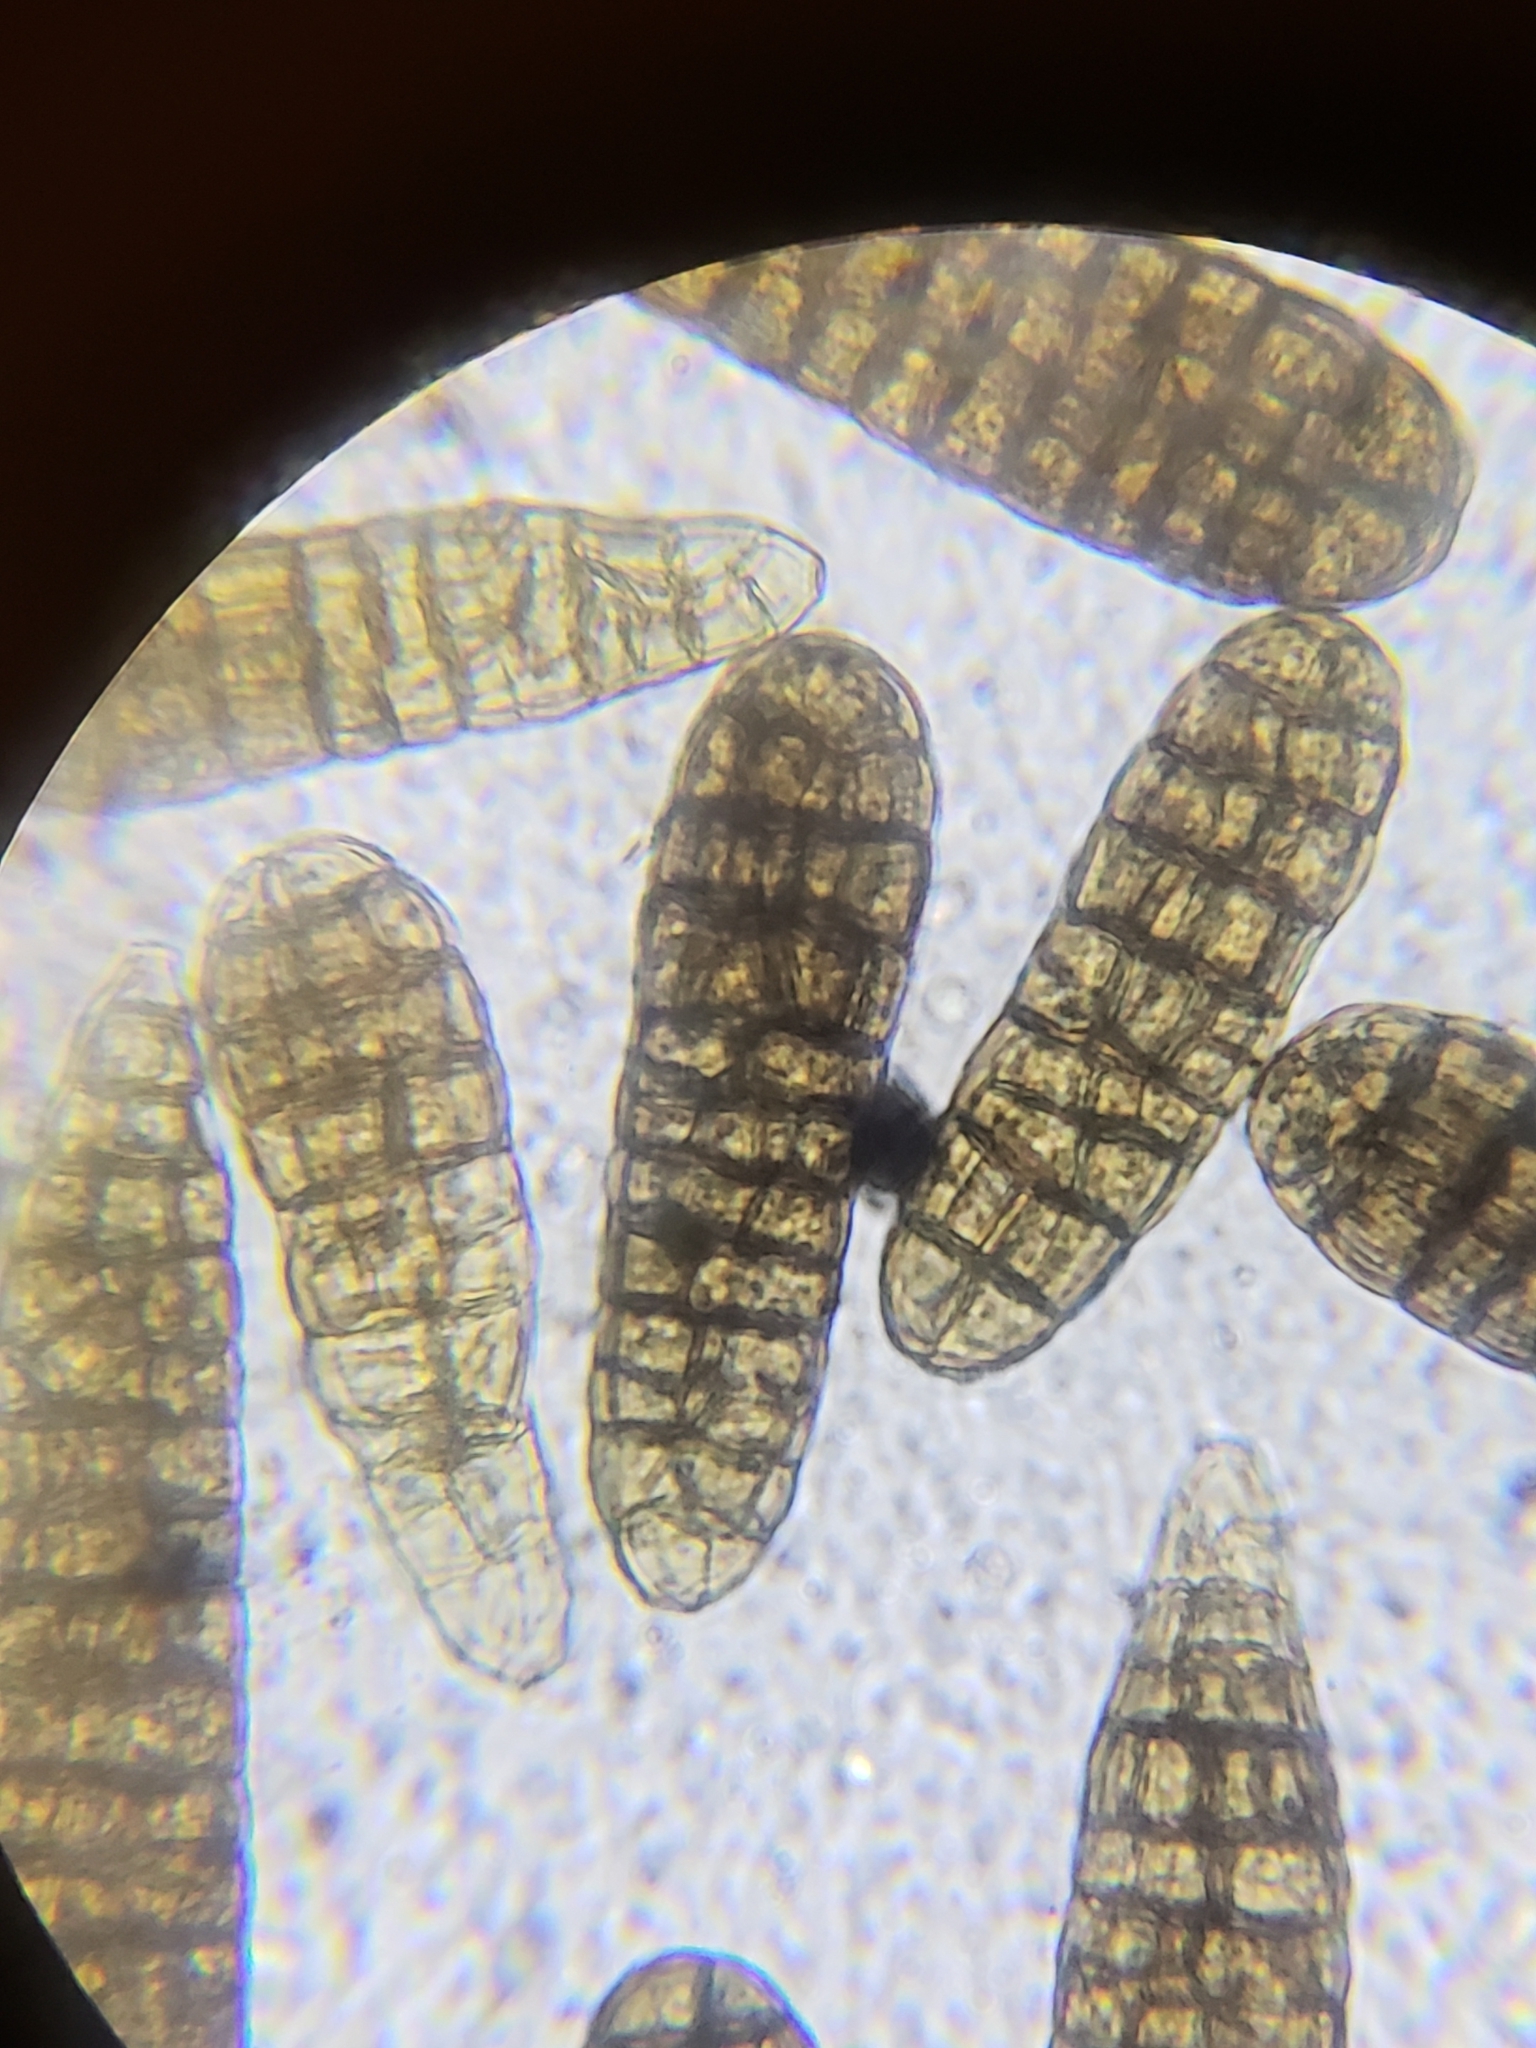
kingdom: Fungi
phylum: Ascomycota
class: Dothideomycetes
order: Pleosporales
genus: Berkleasmium
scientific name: Berkleasmium concinnum
